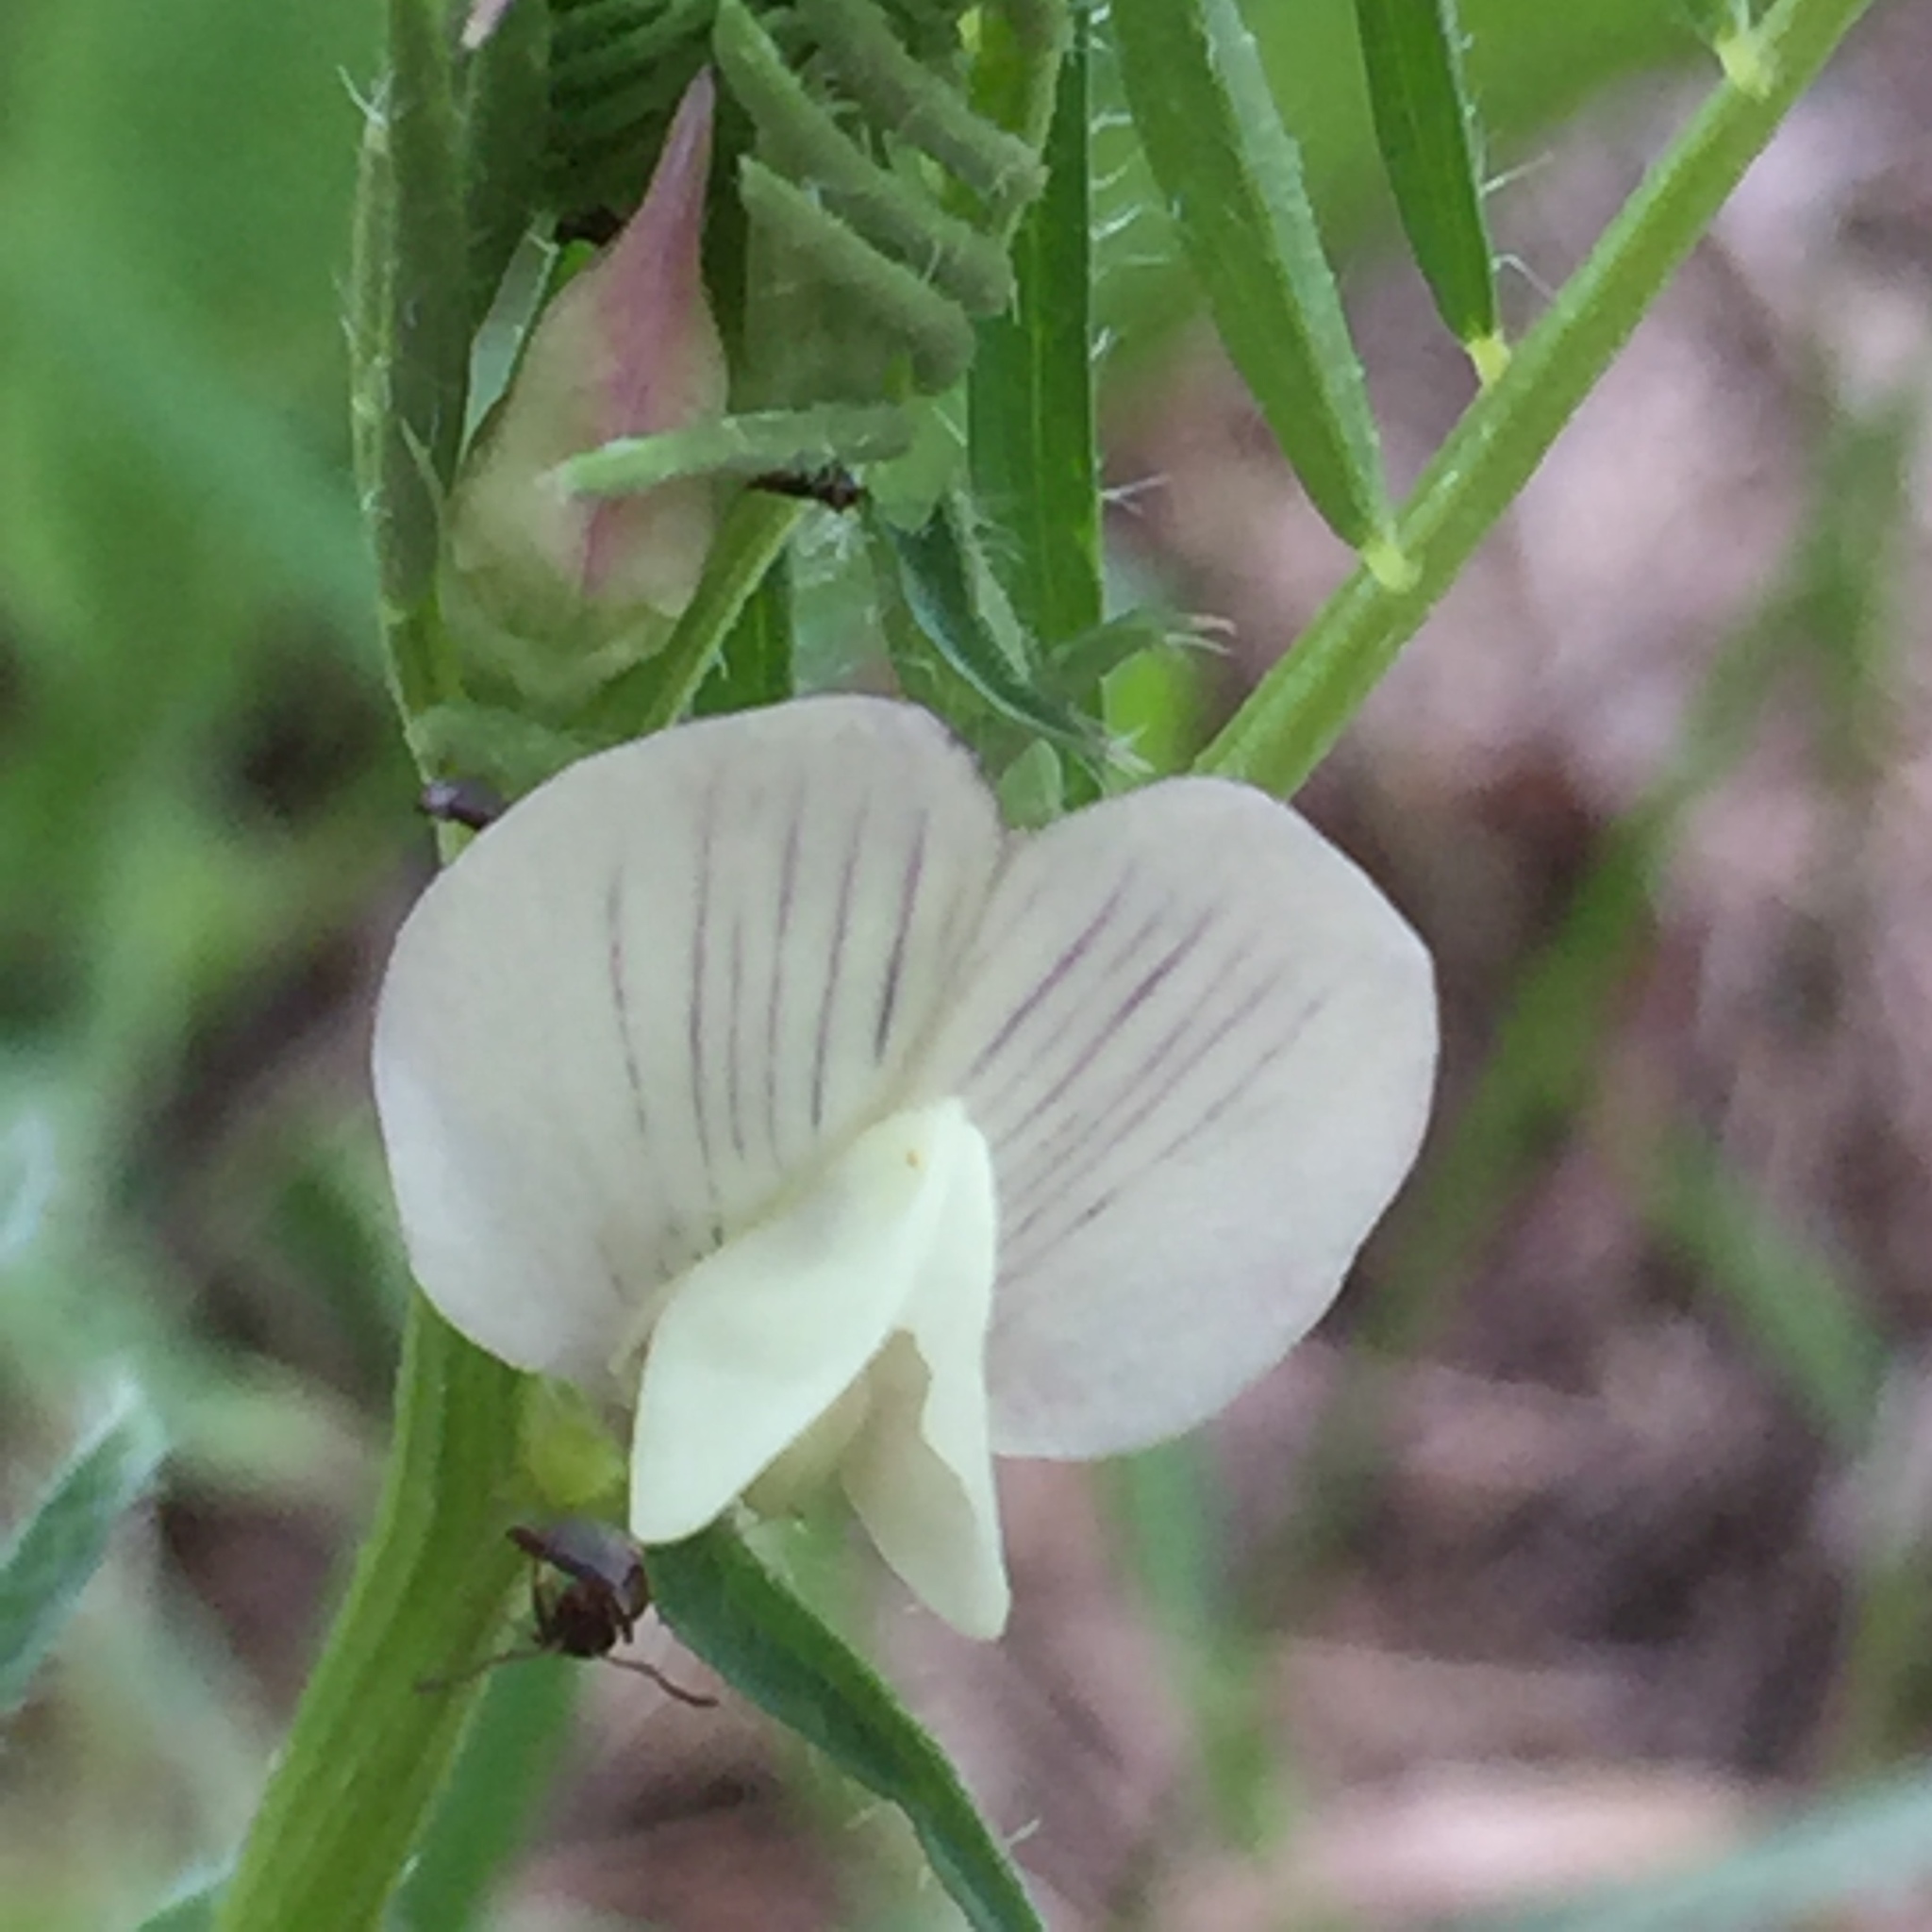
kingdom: Plantae
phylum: Tracheophyta
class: Magnoliopsida
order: Fabales
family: Fabaceae
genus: Vicia
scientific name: Vicia grandiflora
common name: Large yellow vetch
